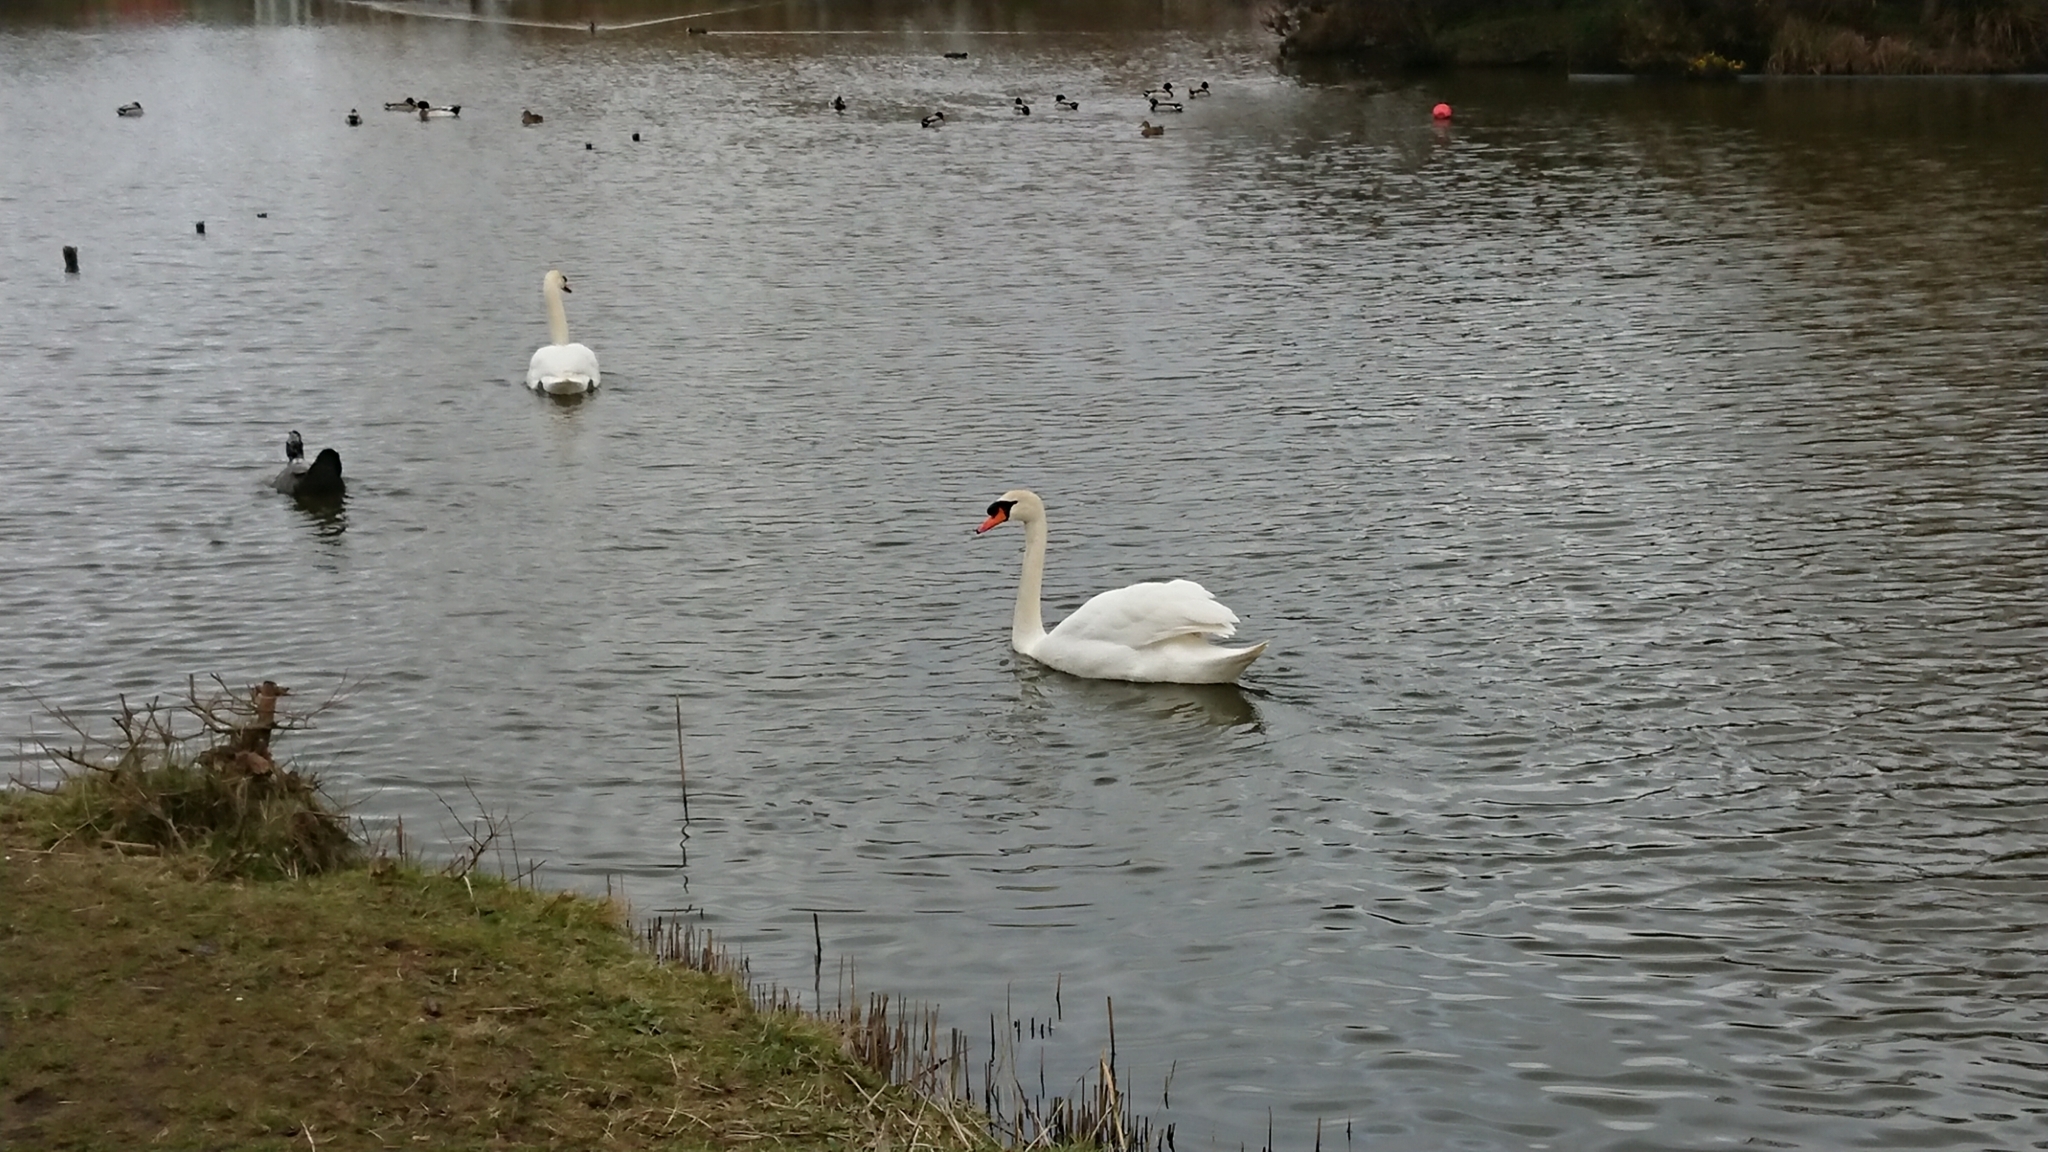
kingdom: Animalia
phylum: Chordata
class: Aves
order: Anseriformes
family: Anatidae
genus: Cygnus
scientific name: Cygnus olor
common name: Mute swan
